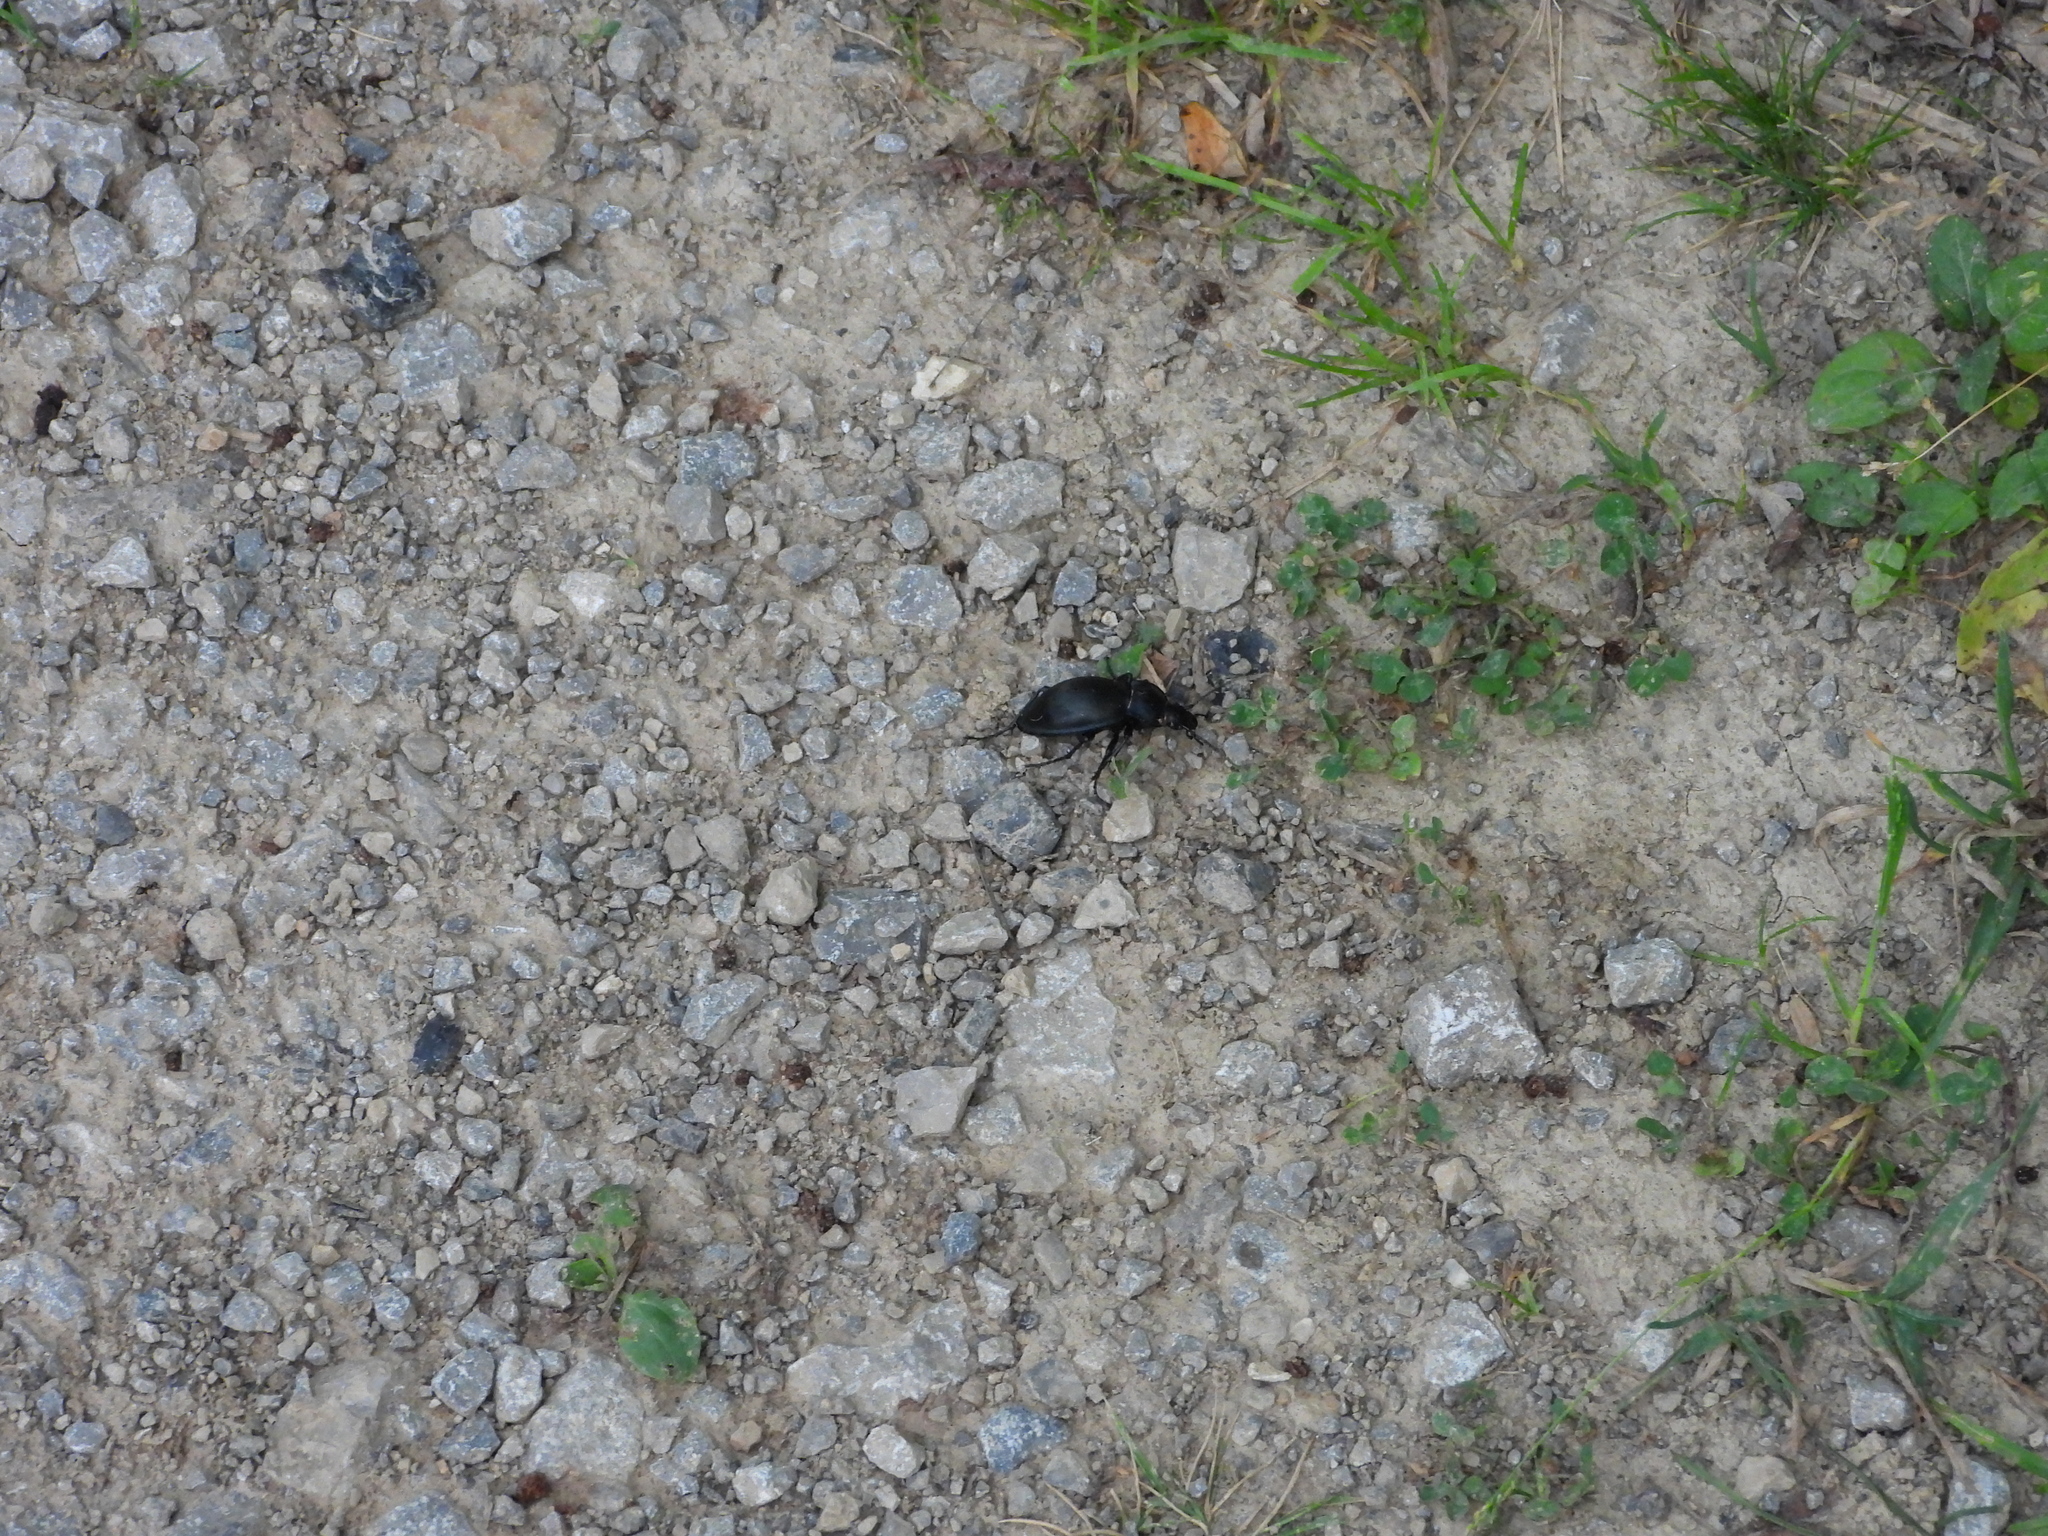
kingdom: Animalia
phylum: Arthropoda
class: Insecta
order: Coleoptera
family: Carabidae
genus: Carabus
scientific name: Carabus glabratus
